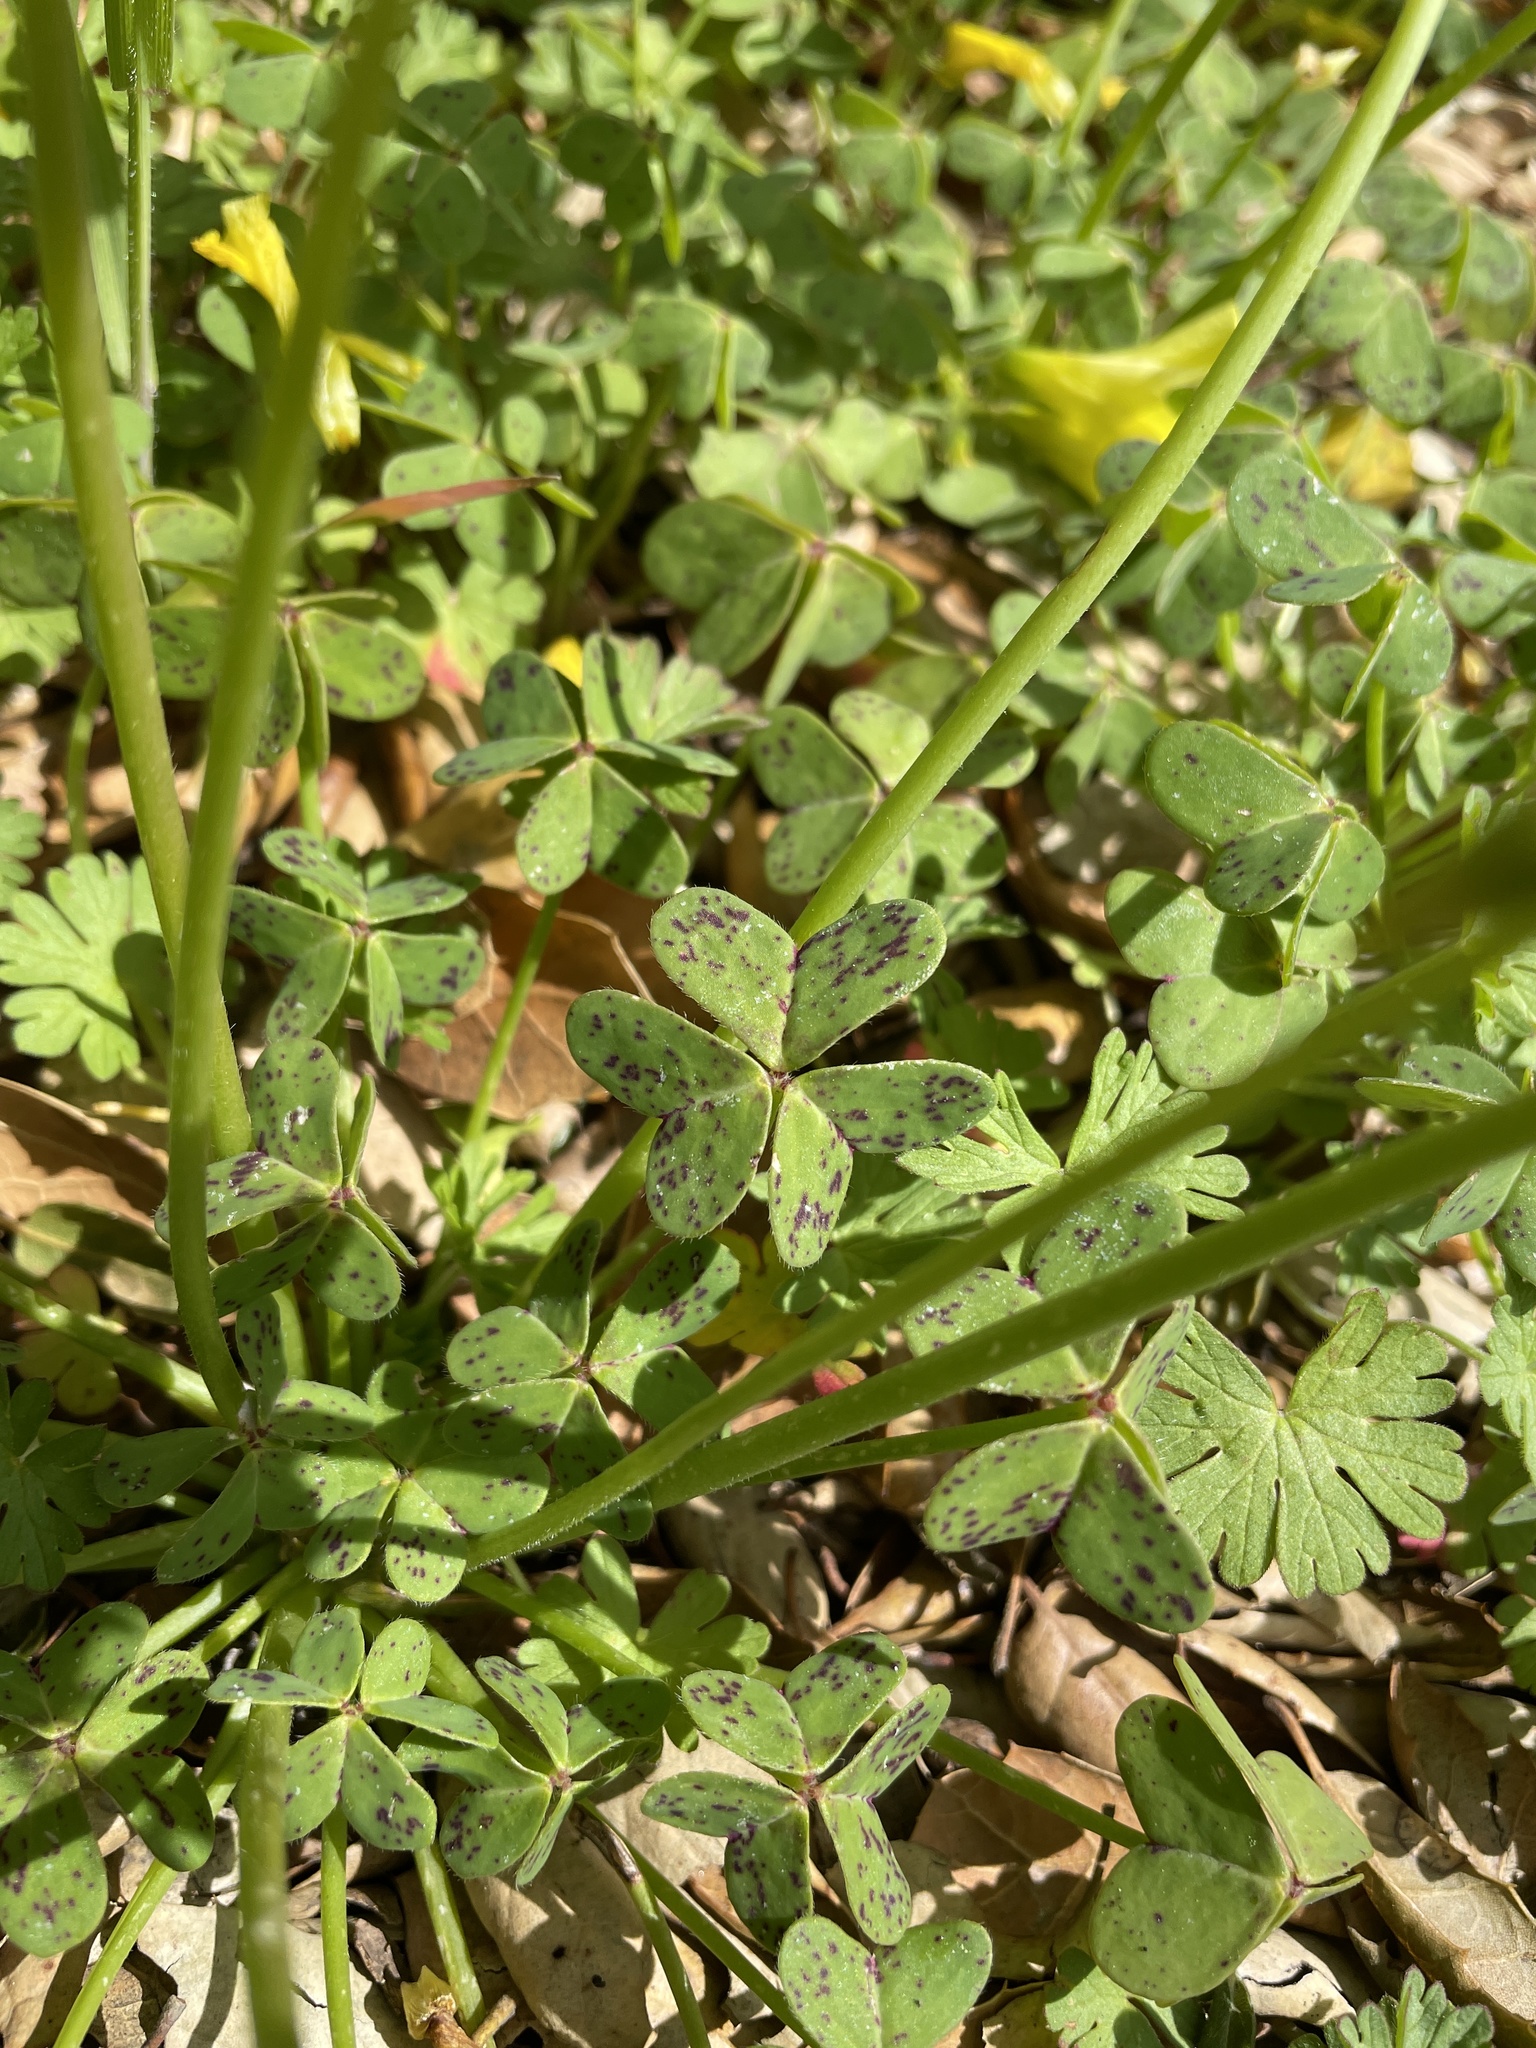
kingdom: Plantae
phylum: Tracheophyta
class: Magnoliopsida
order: Oxalidales
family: Oxalidaceae
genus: Oxalis
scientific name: Oxalis pes-caprae
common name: Bermuda-buttercup
